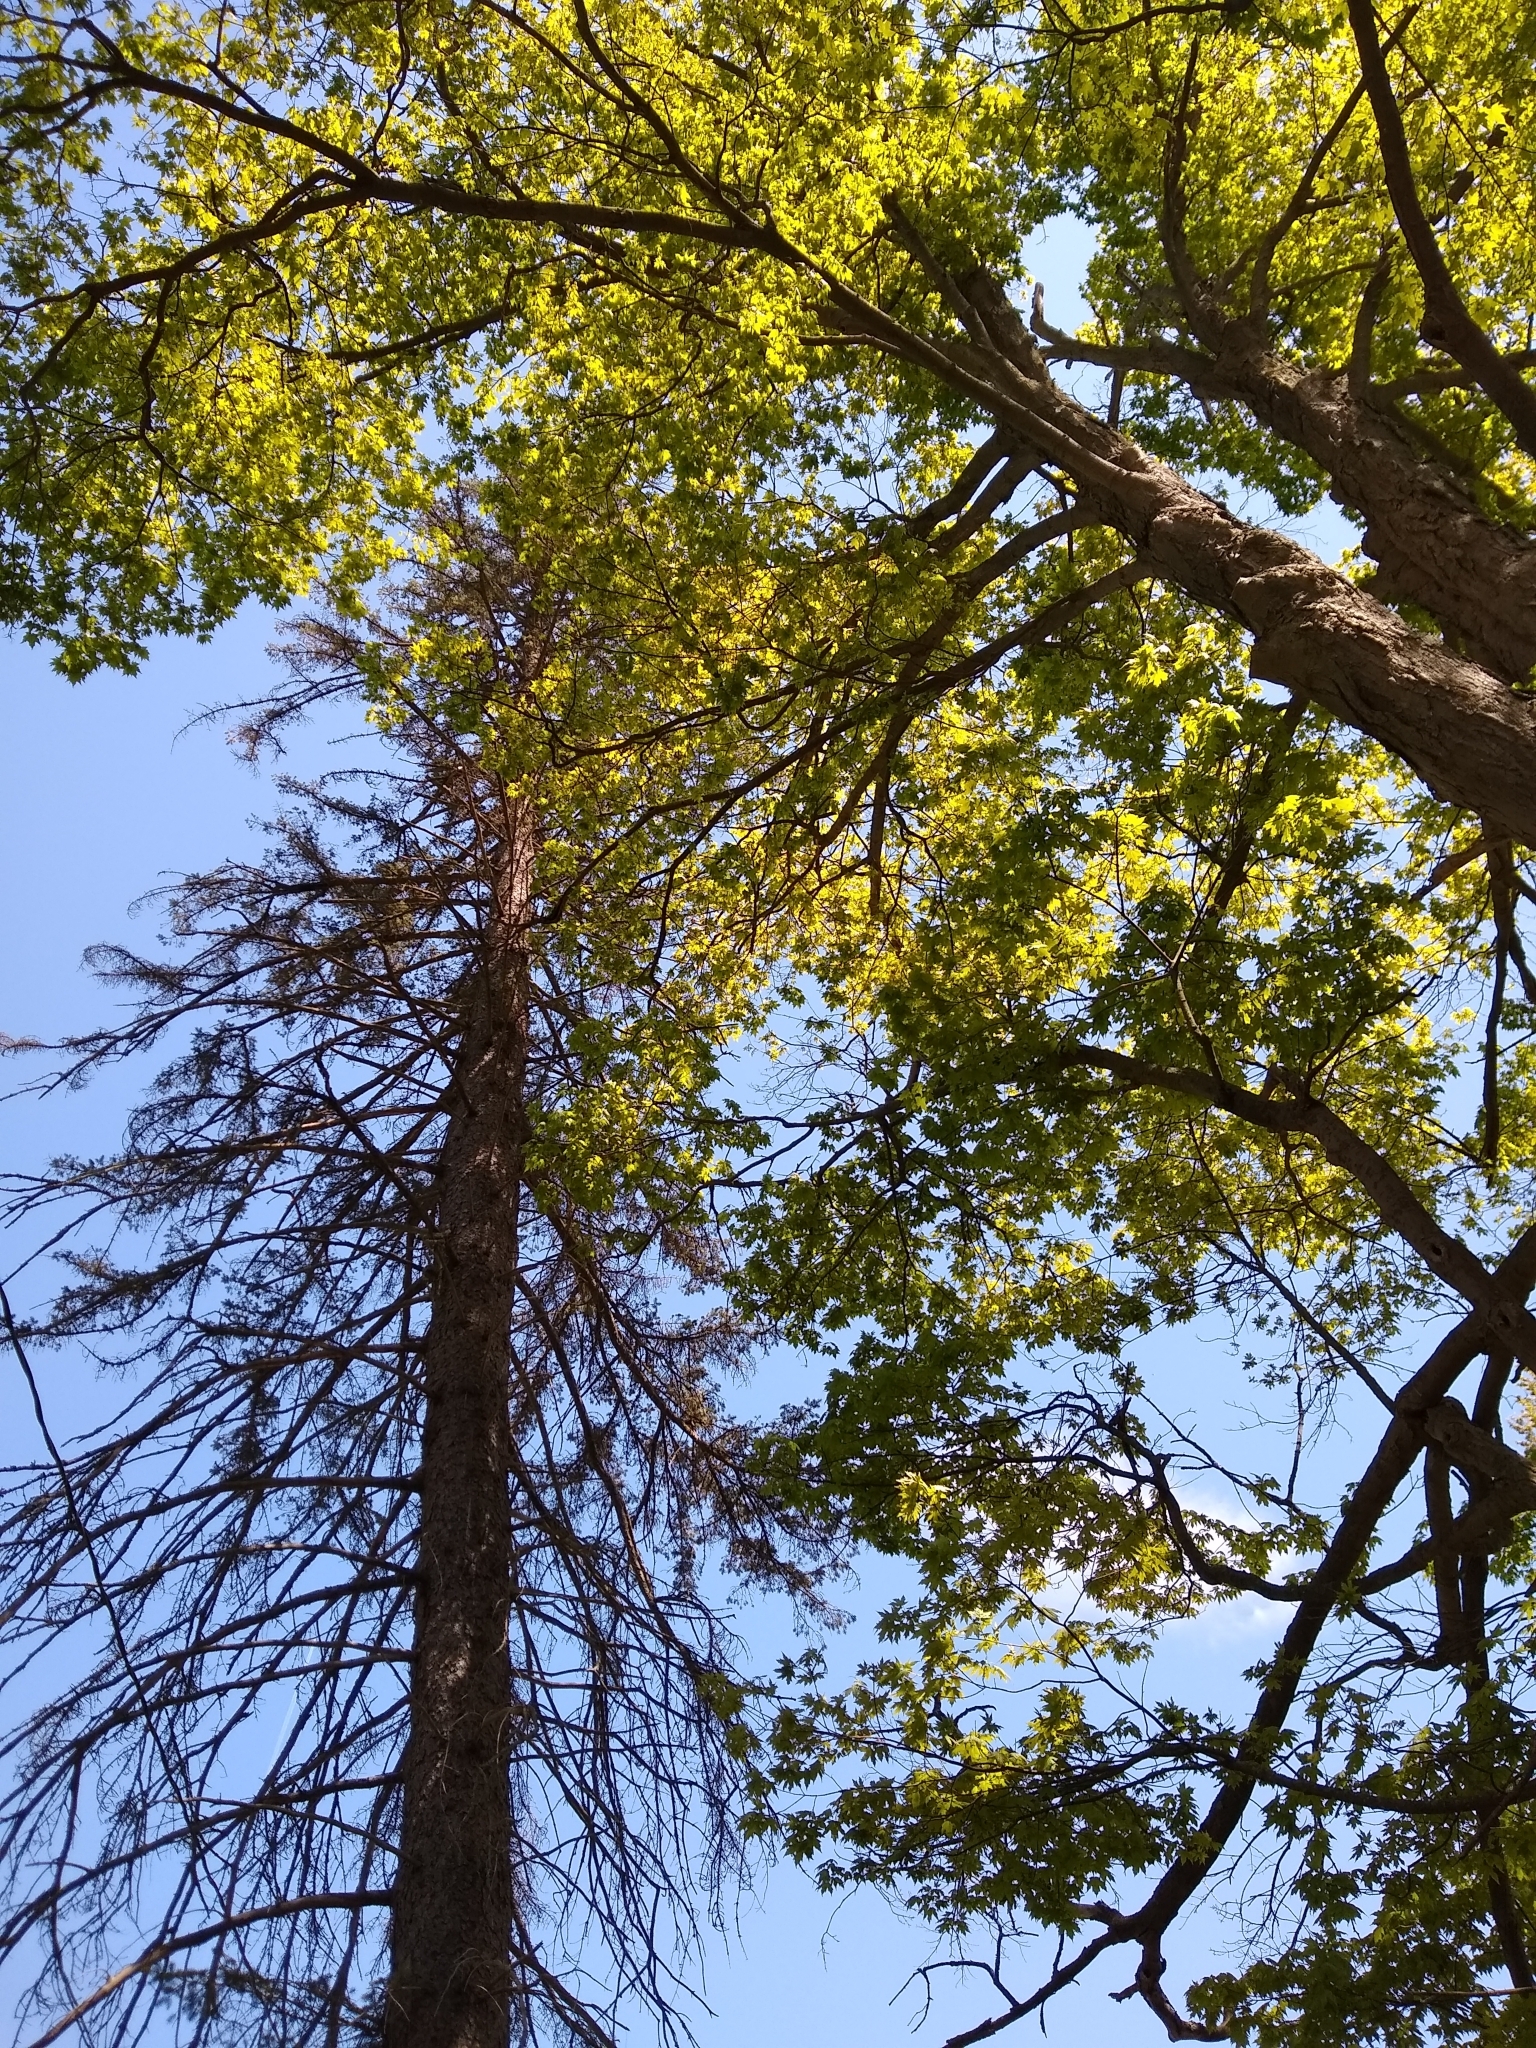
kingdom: Animalia
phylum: Chordata
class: Aves
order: Passeriformes
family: Icteridae
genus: Icterus
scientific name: Icterus galbula
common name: Baltimore oriole
